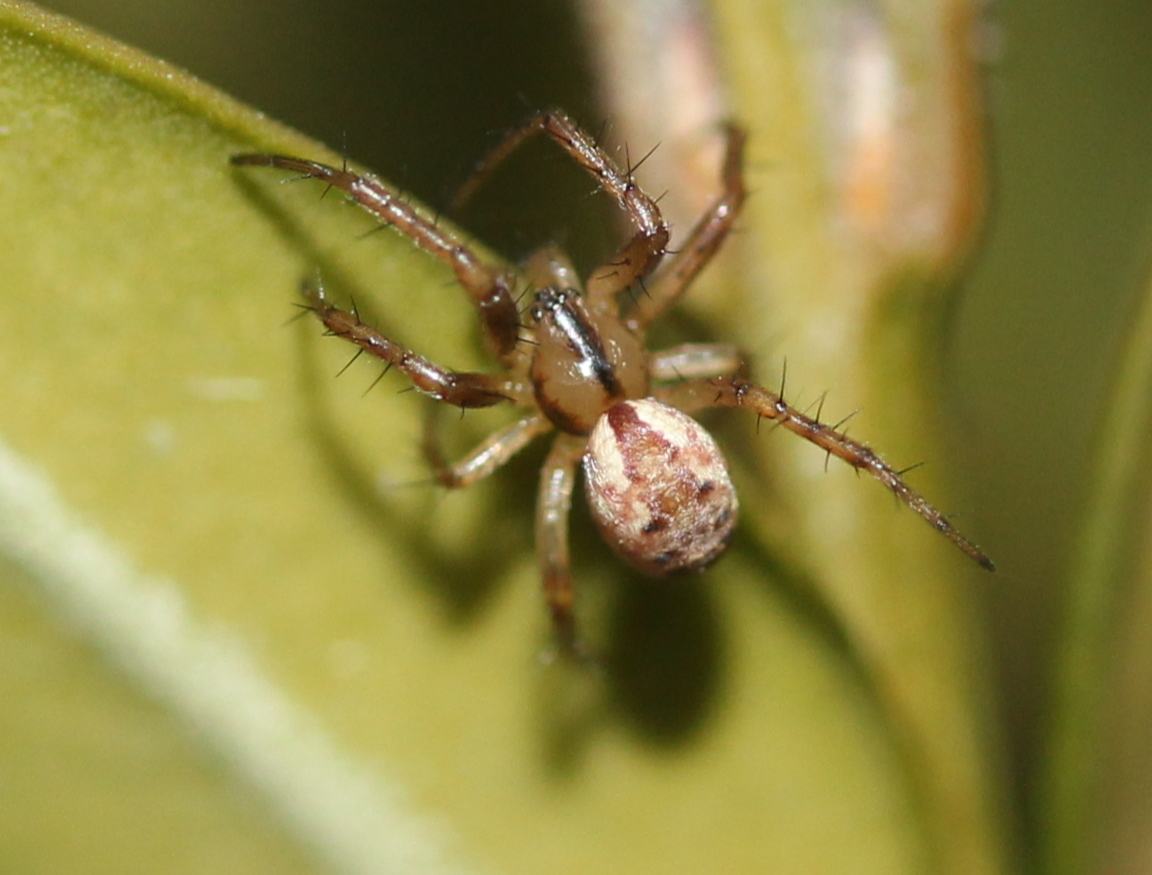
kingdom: Animalia
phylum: Arthropoda
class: Arachnida
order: Araneae
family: Araneidae
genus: Mangora
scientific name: Mangora placida
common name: Tuft-legged orbweaver
